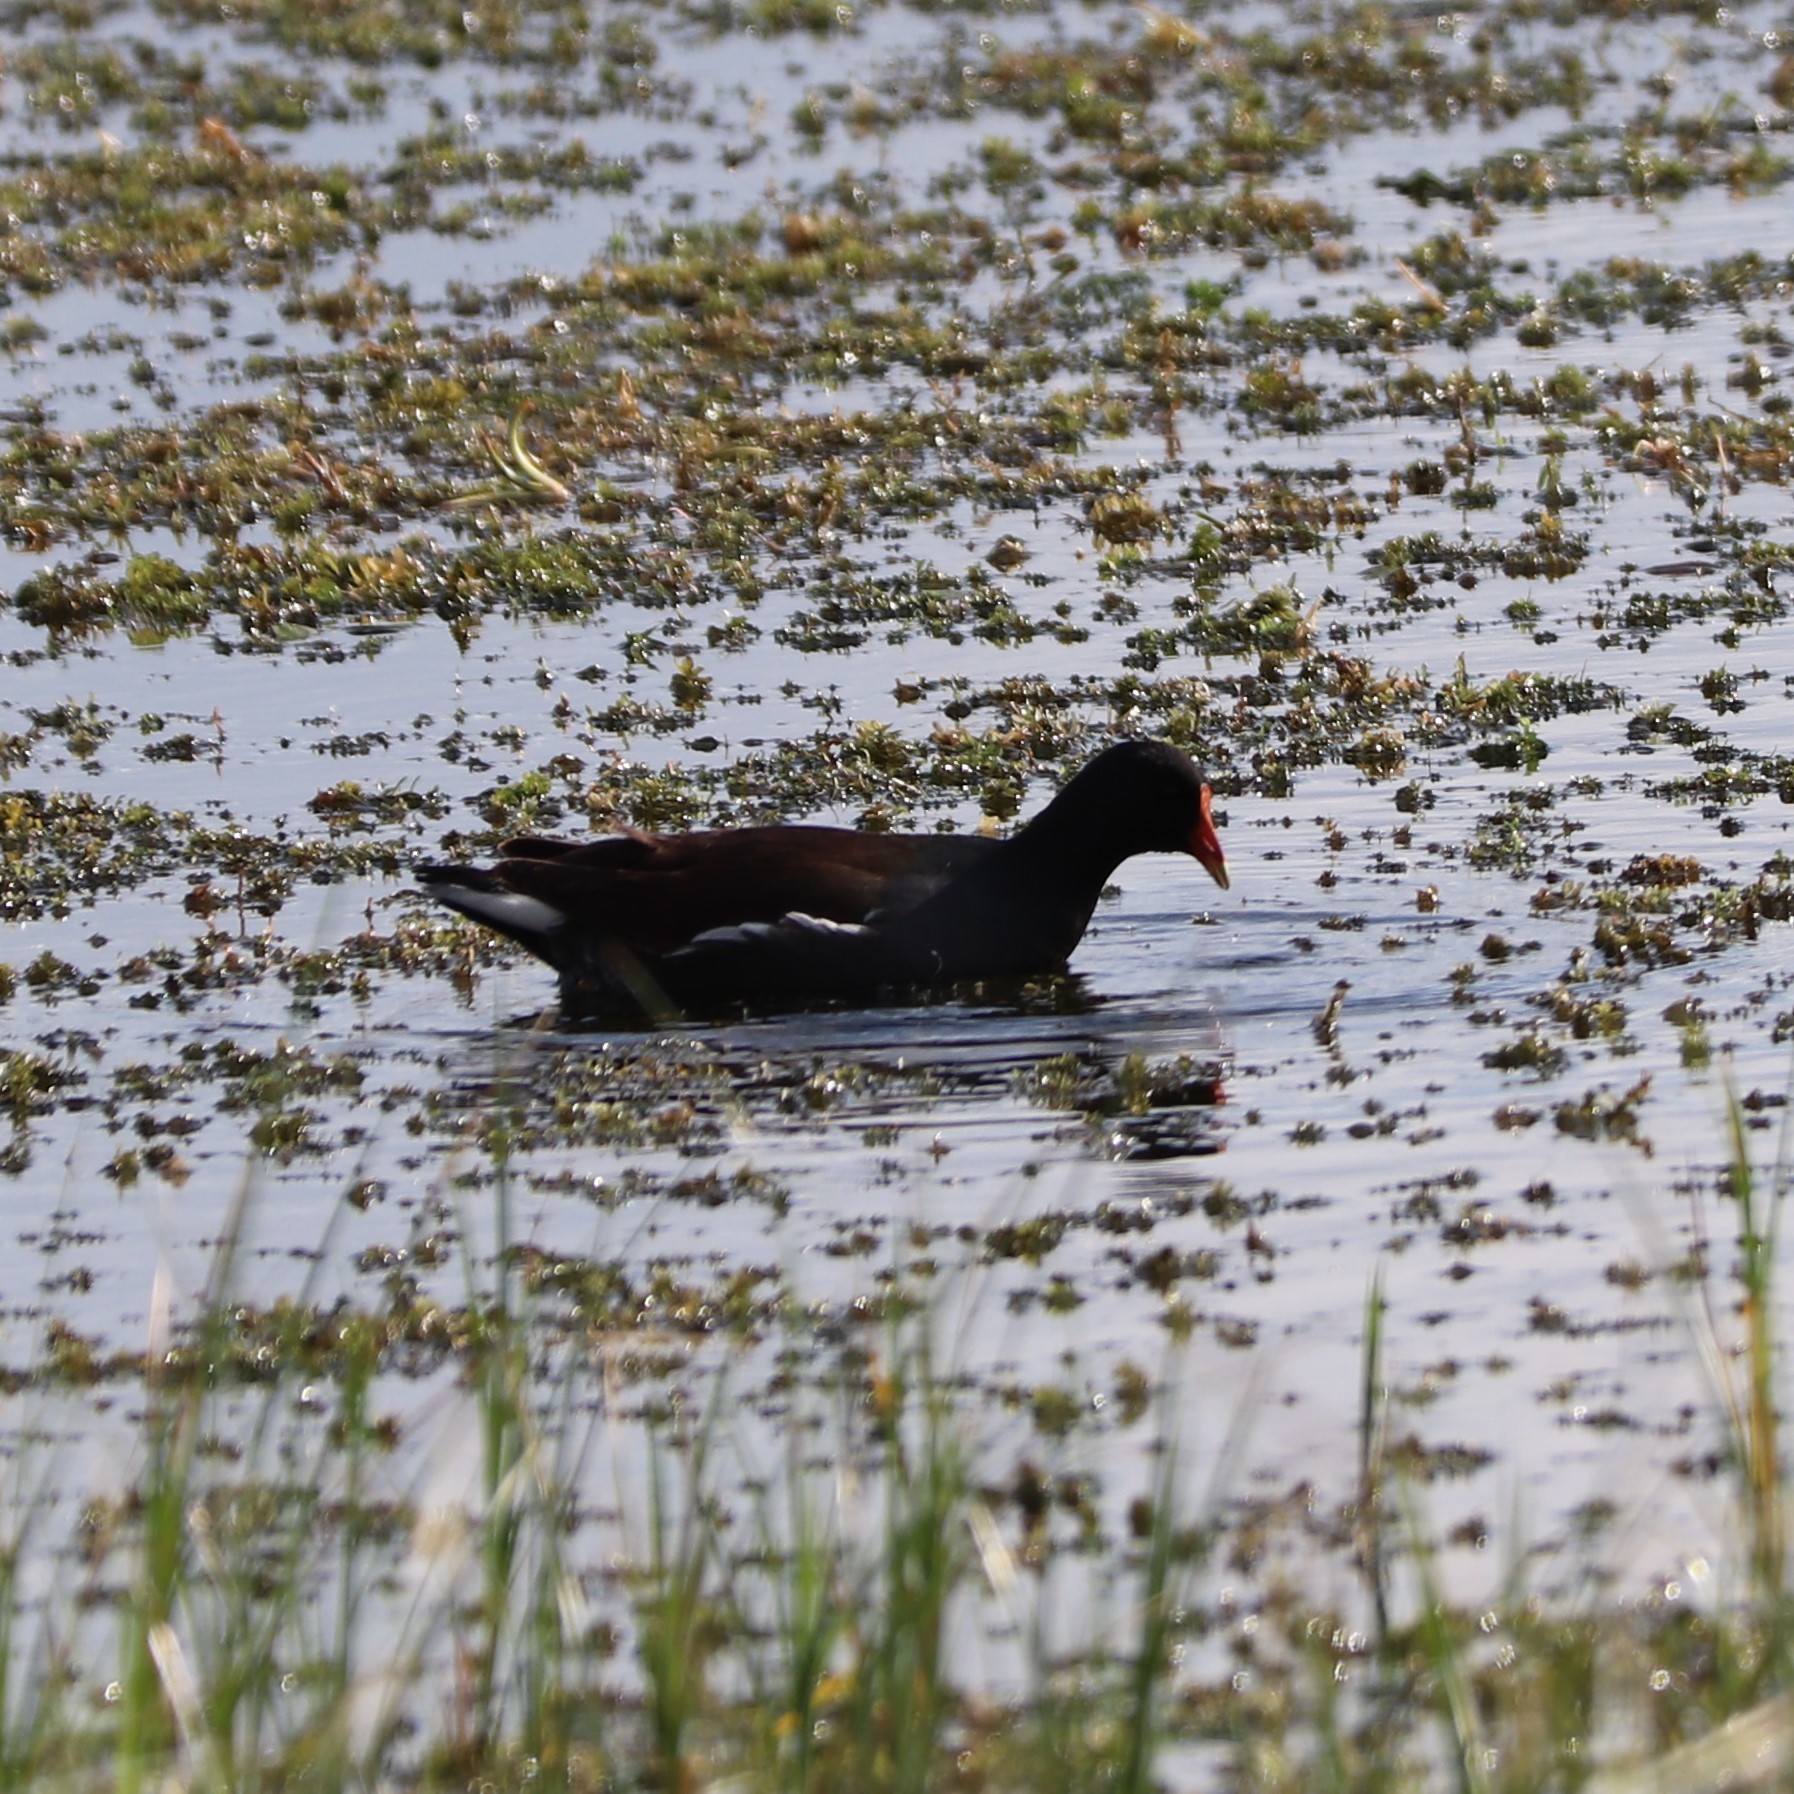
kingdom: Animalia
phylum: Chordata
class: Aves
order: Gruiformes
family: Rallidae
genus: Gallinula
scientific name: Gallinula chloropus
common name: Common moorhen
